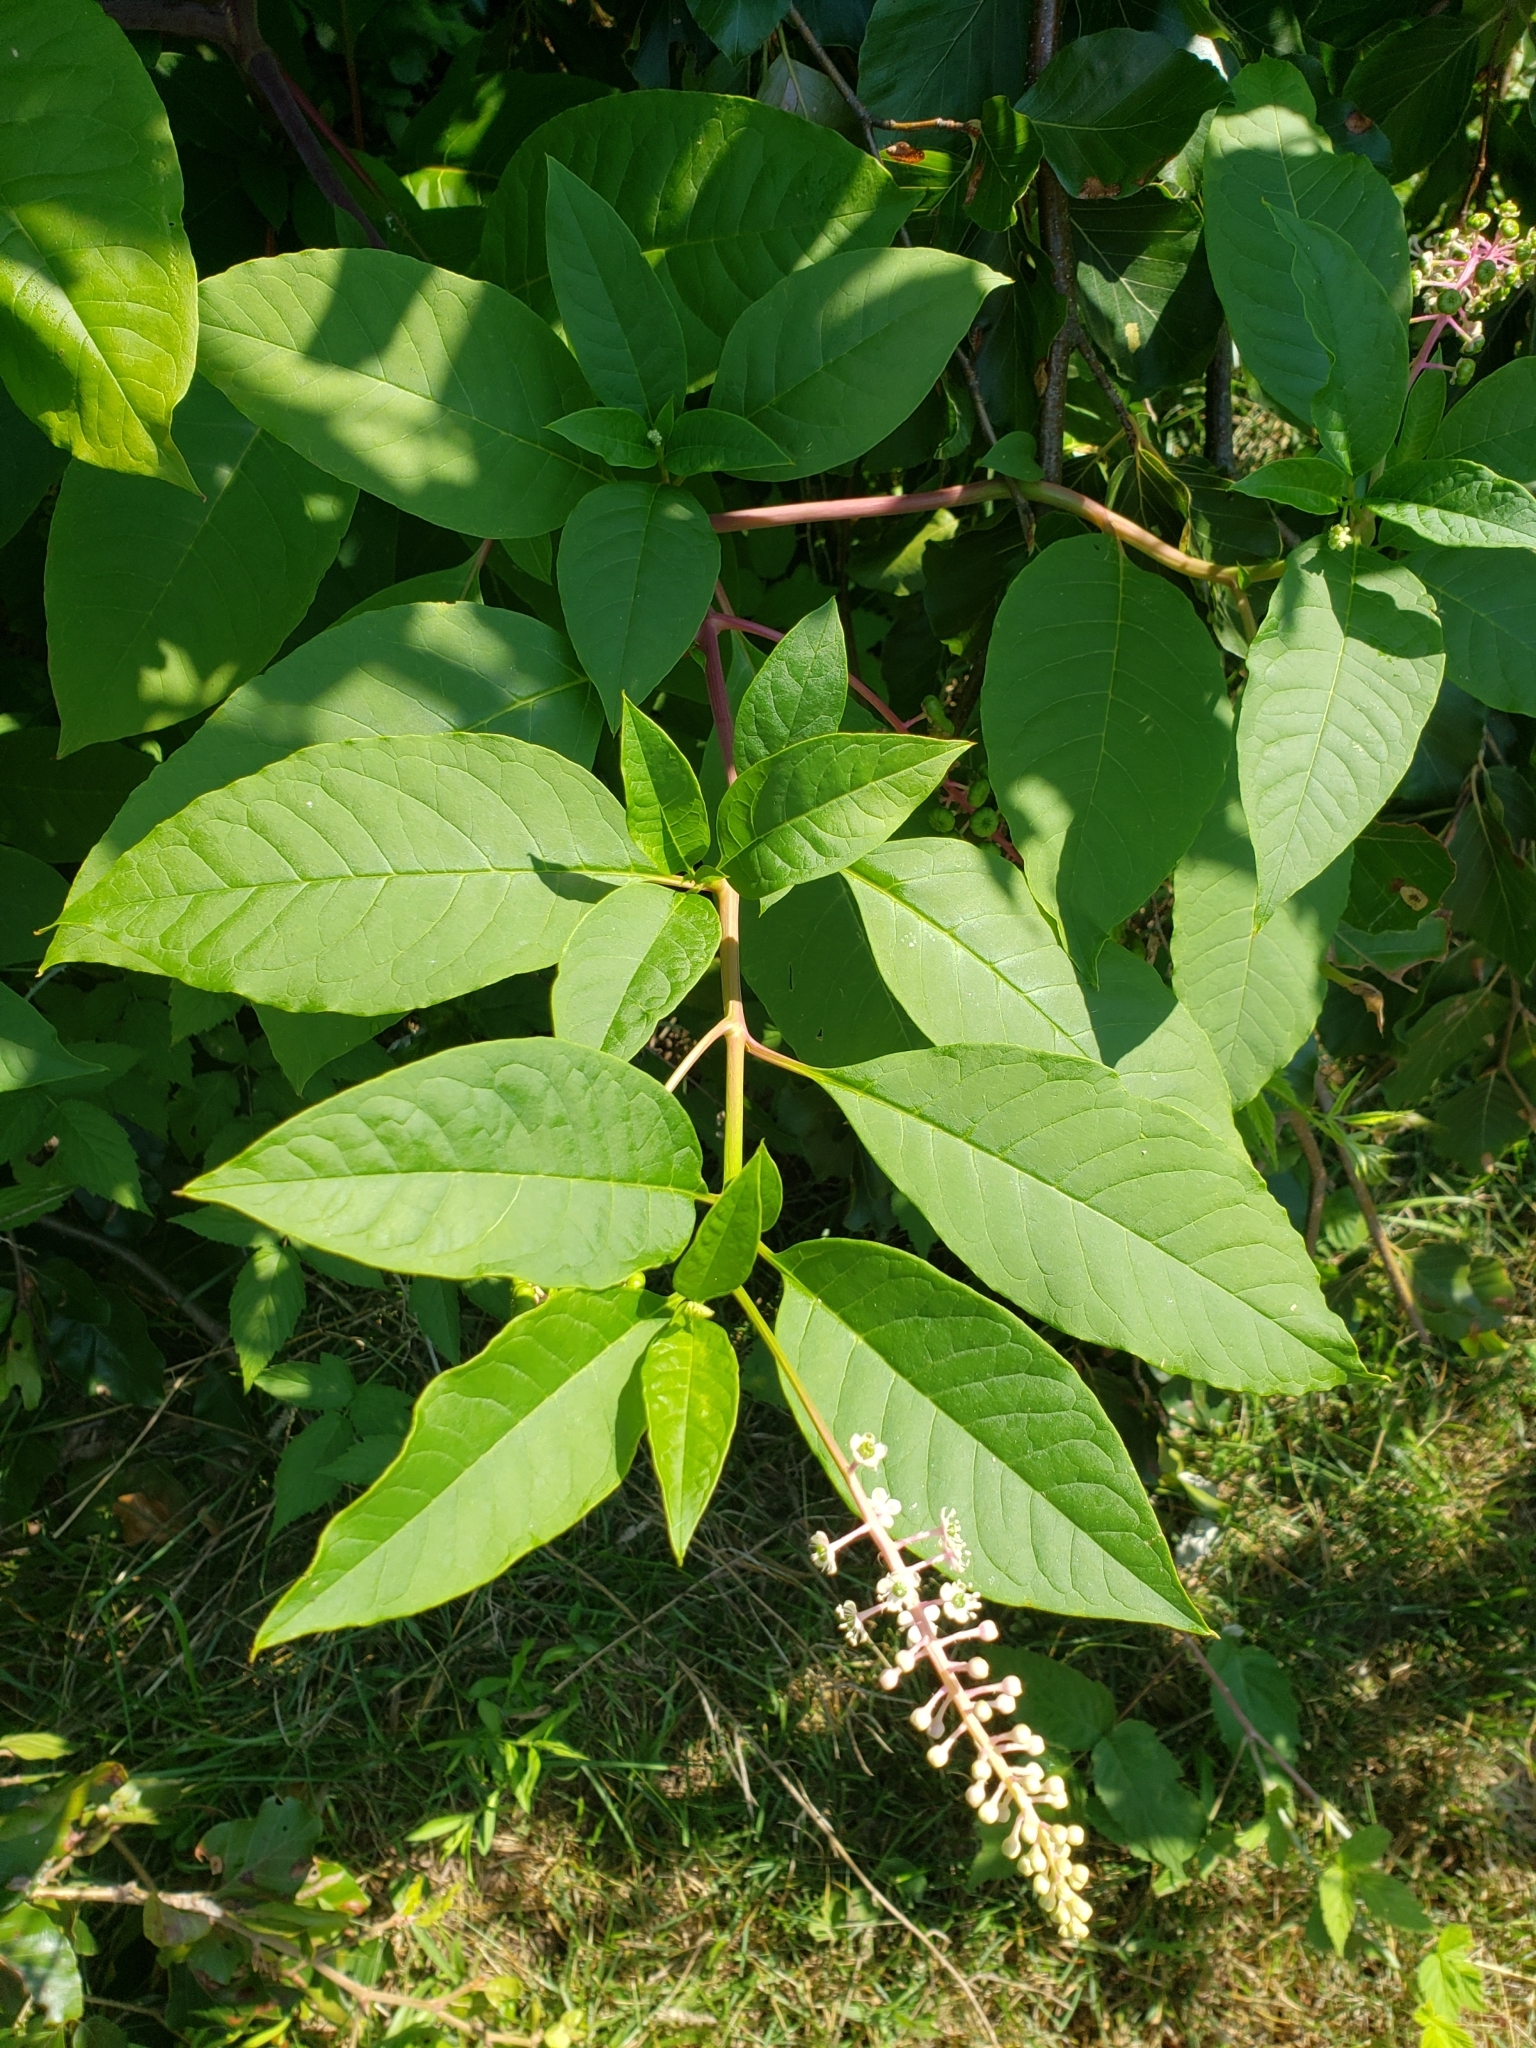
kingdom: Plantae
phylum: Tracheophyta
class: Magnoliopsida
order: Caryophyllales
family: Phytolaccaceae
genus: Phytolacca
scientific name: Phytolacca americana
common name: American pokeweed
